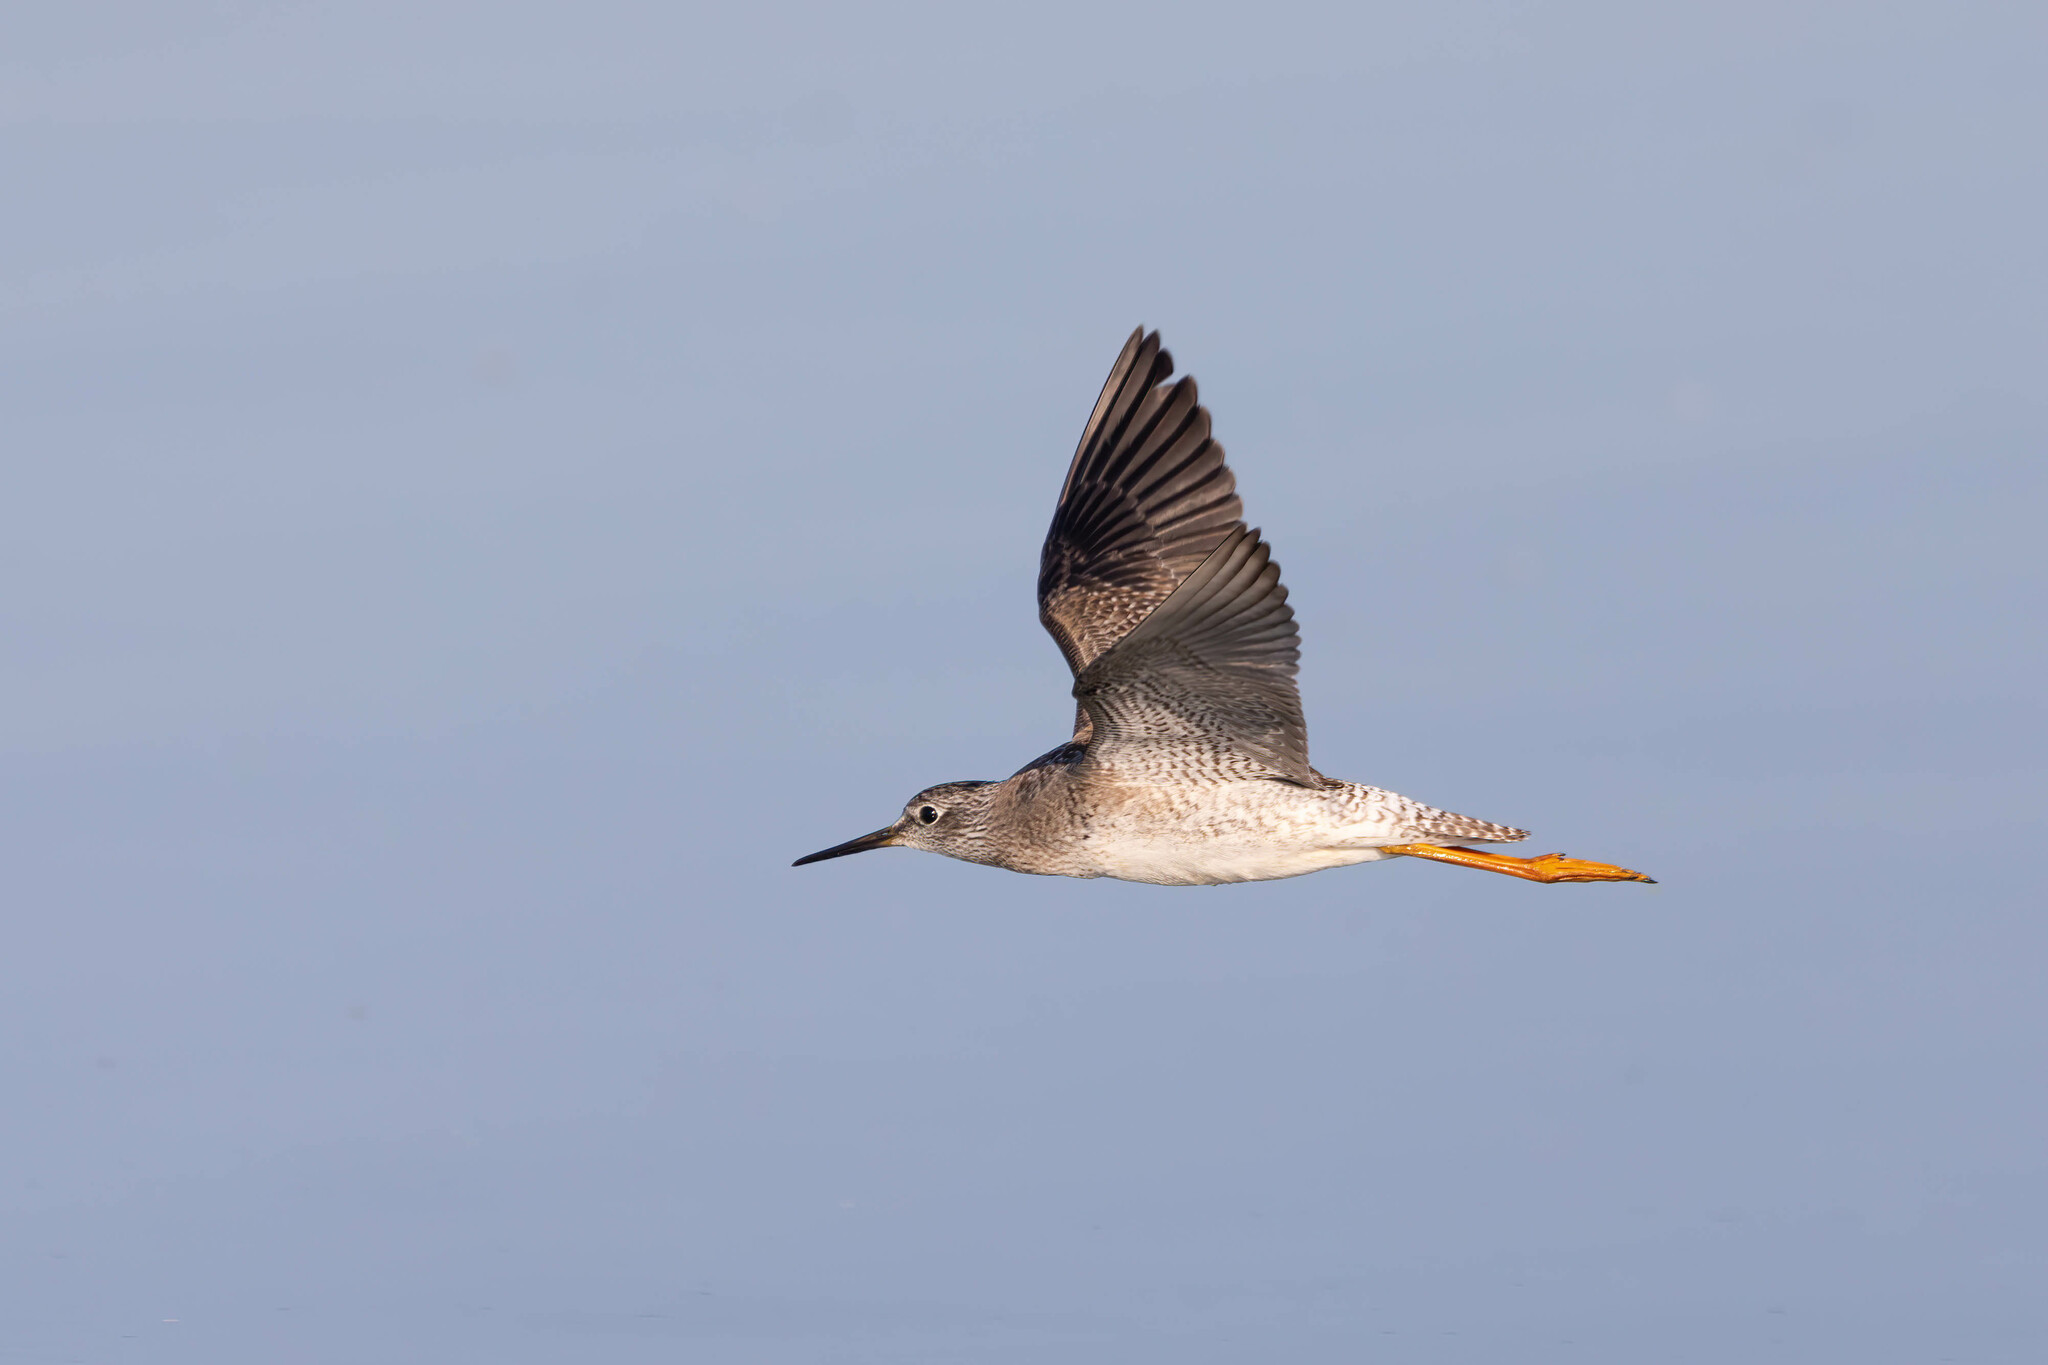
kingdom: Animalia
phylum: Chordata
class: Aves
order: Charadriiformes
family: Scolopacidae
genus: Tringa
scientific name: Tringa flavipes
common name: Lesser yellowlegs
